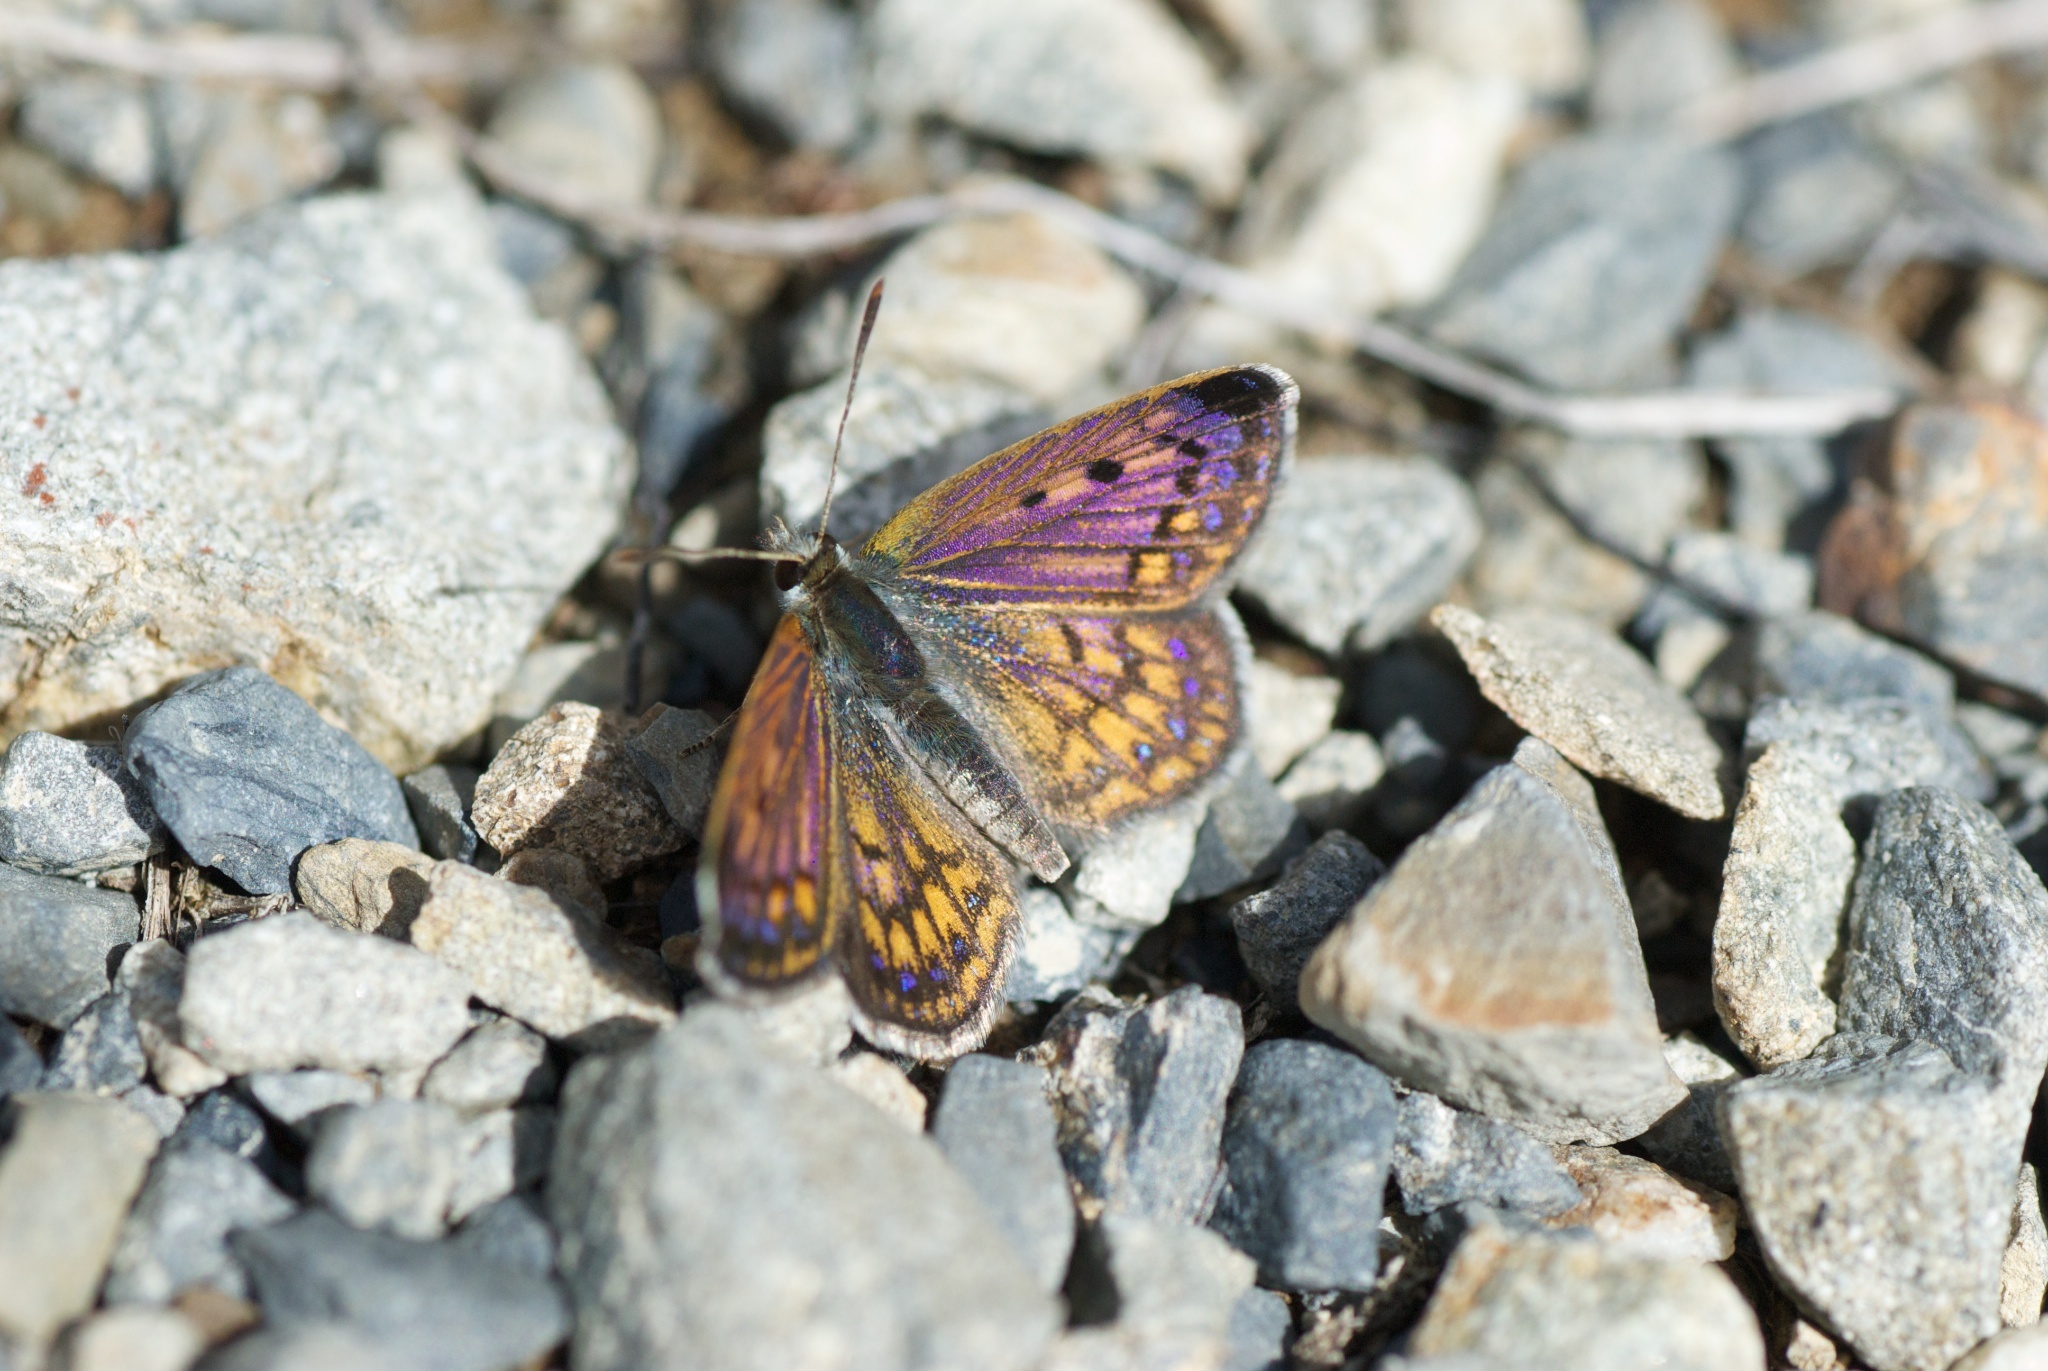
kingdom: Animalia
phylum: Arthropoda
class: Insecta
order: Lepidoptera
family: Lycaenidae
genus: Lycaena
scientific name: Lycaena boldenarum
